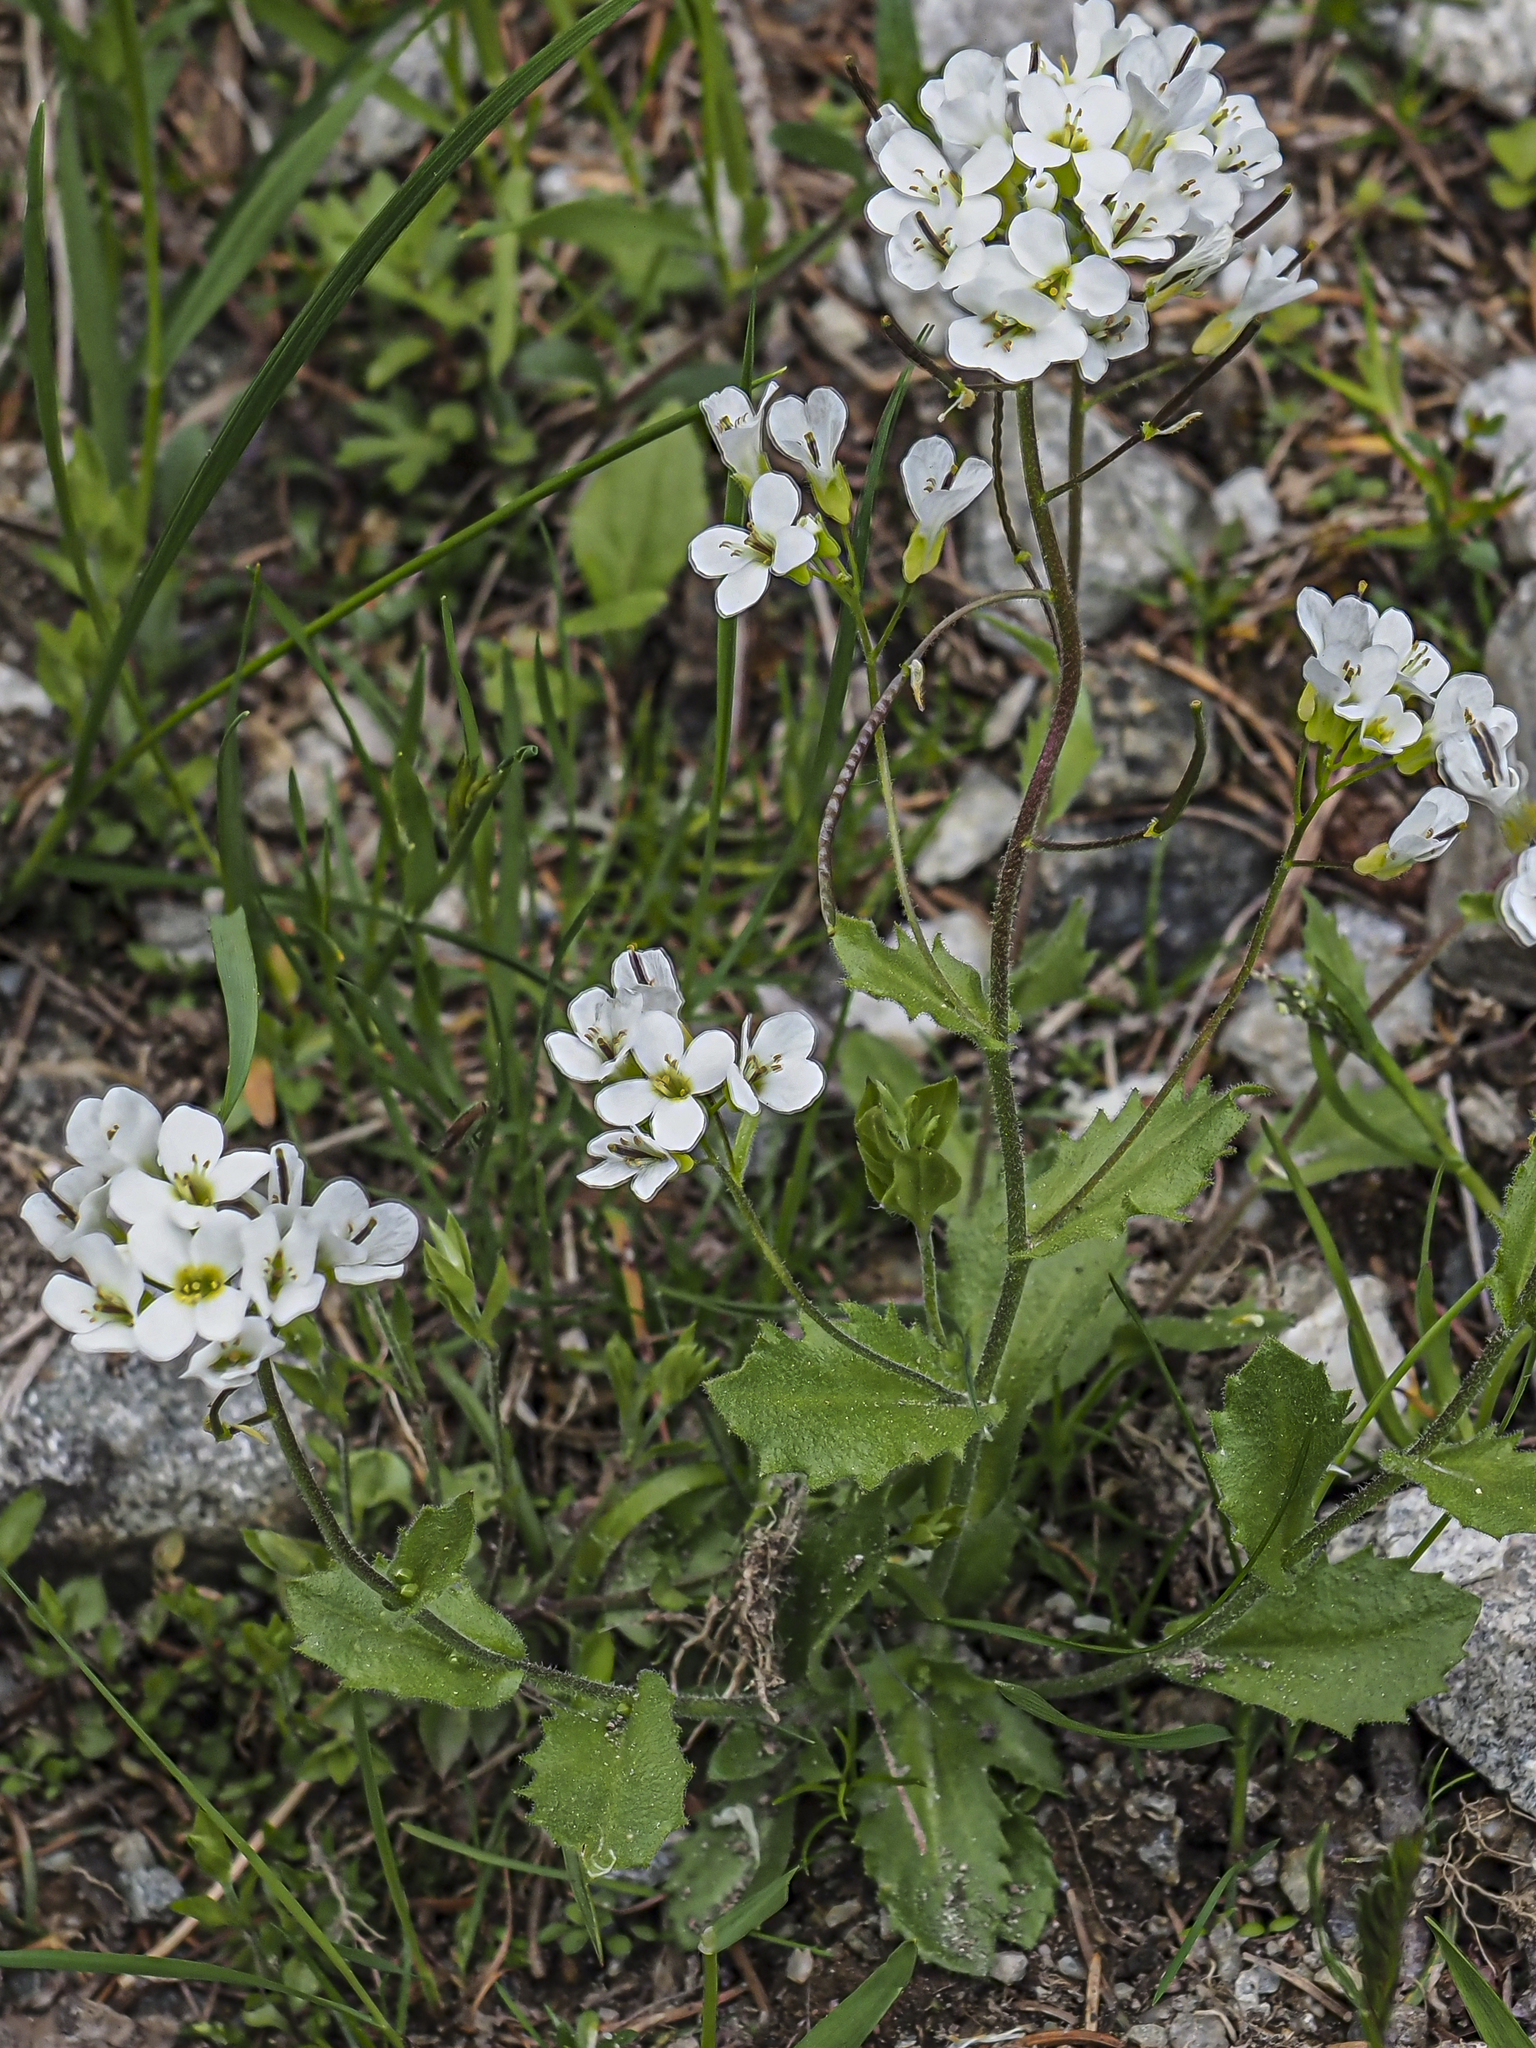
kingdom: Plantae
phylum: Tracheophyta
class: Magnoliopsida
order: Brassicales
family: Brassicaceae
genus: Arabis
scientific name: Arabis alpina
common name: Alpine rock-cress
